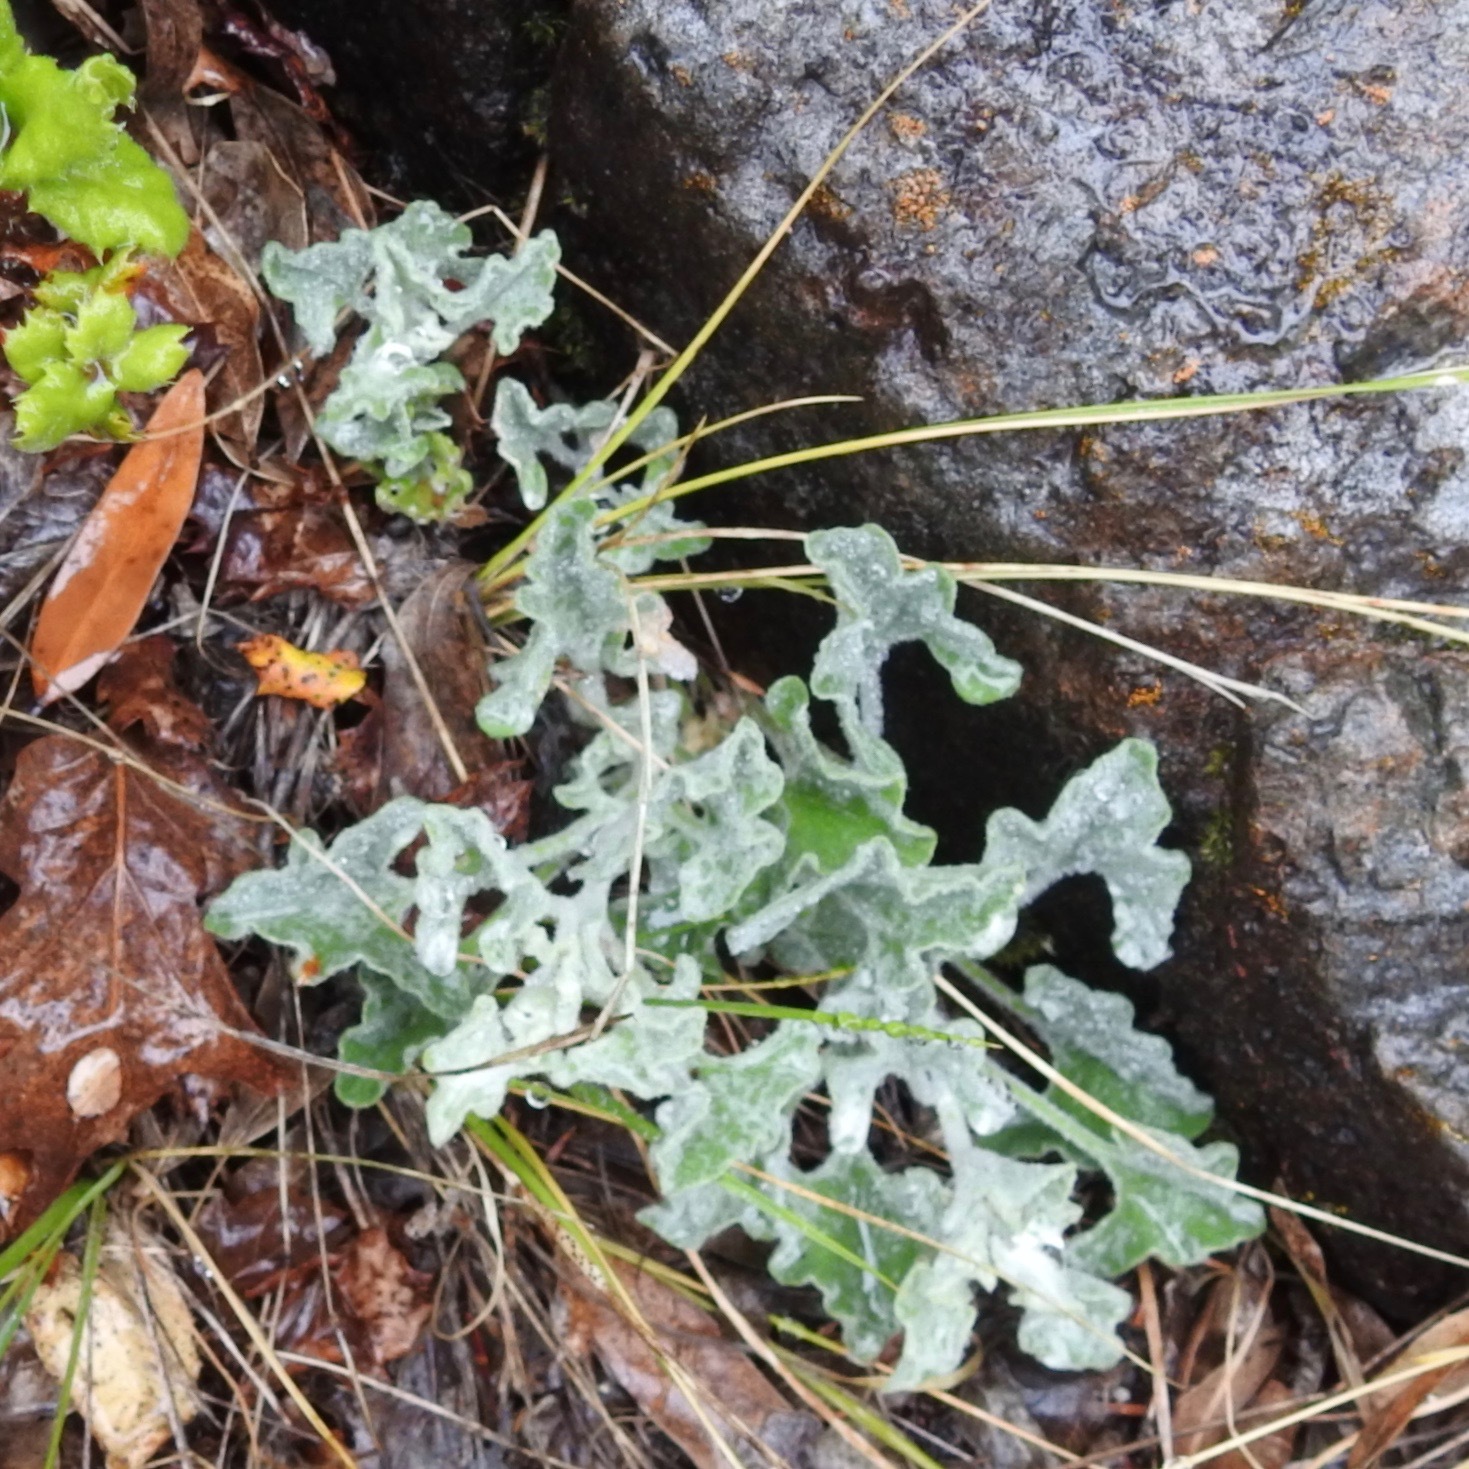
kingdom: Plantae
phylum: Tracheophyta
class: Magnoliopsida
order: Solanales
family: Convolvulaceae
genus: Calystegia
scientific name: Calystegia collina
